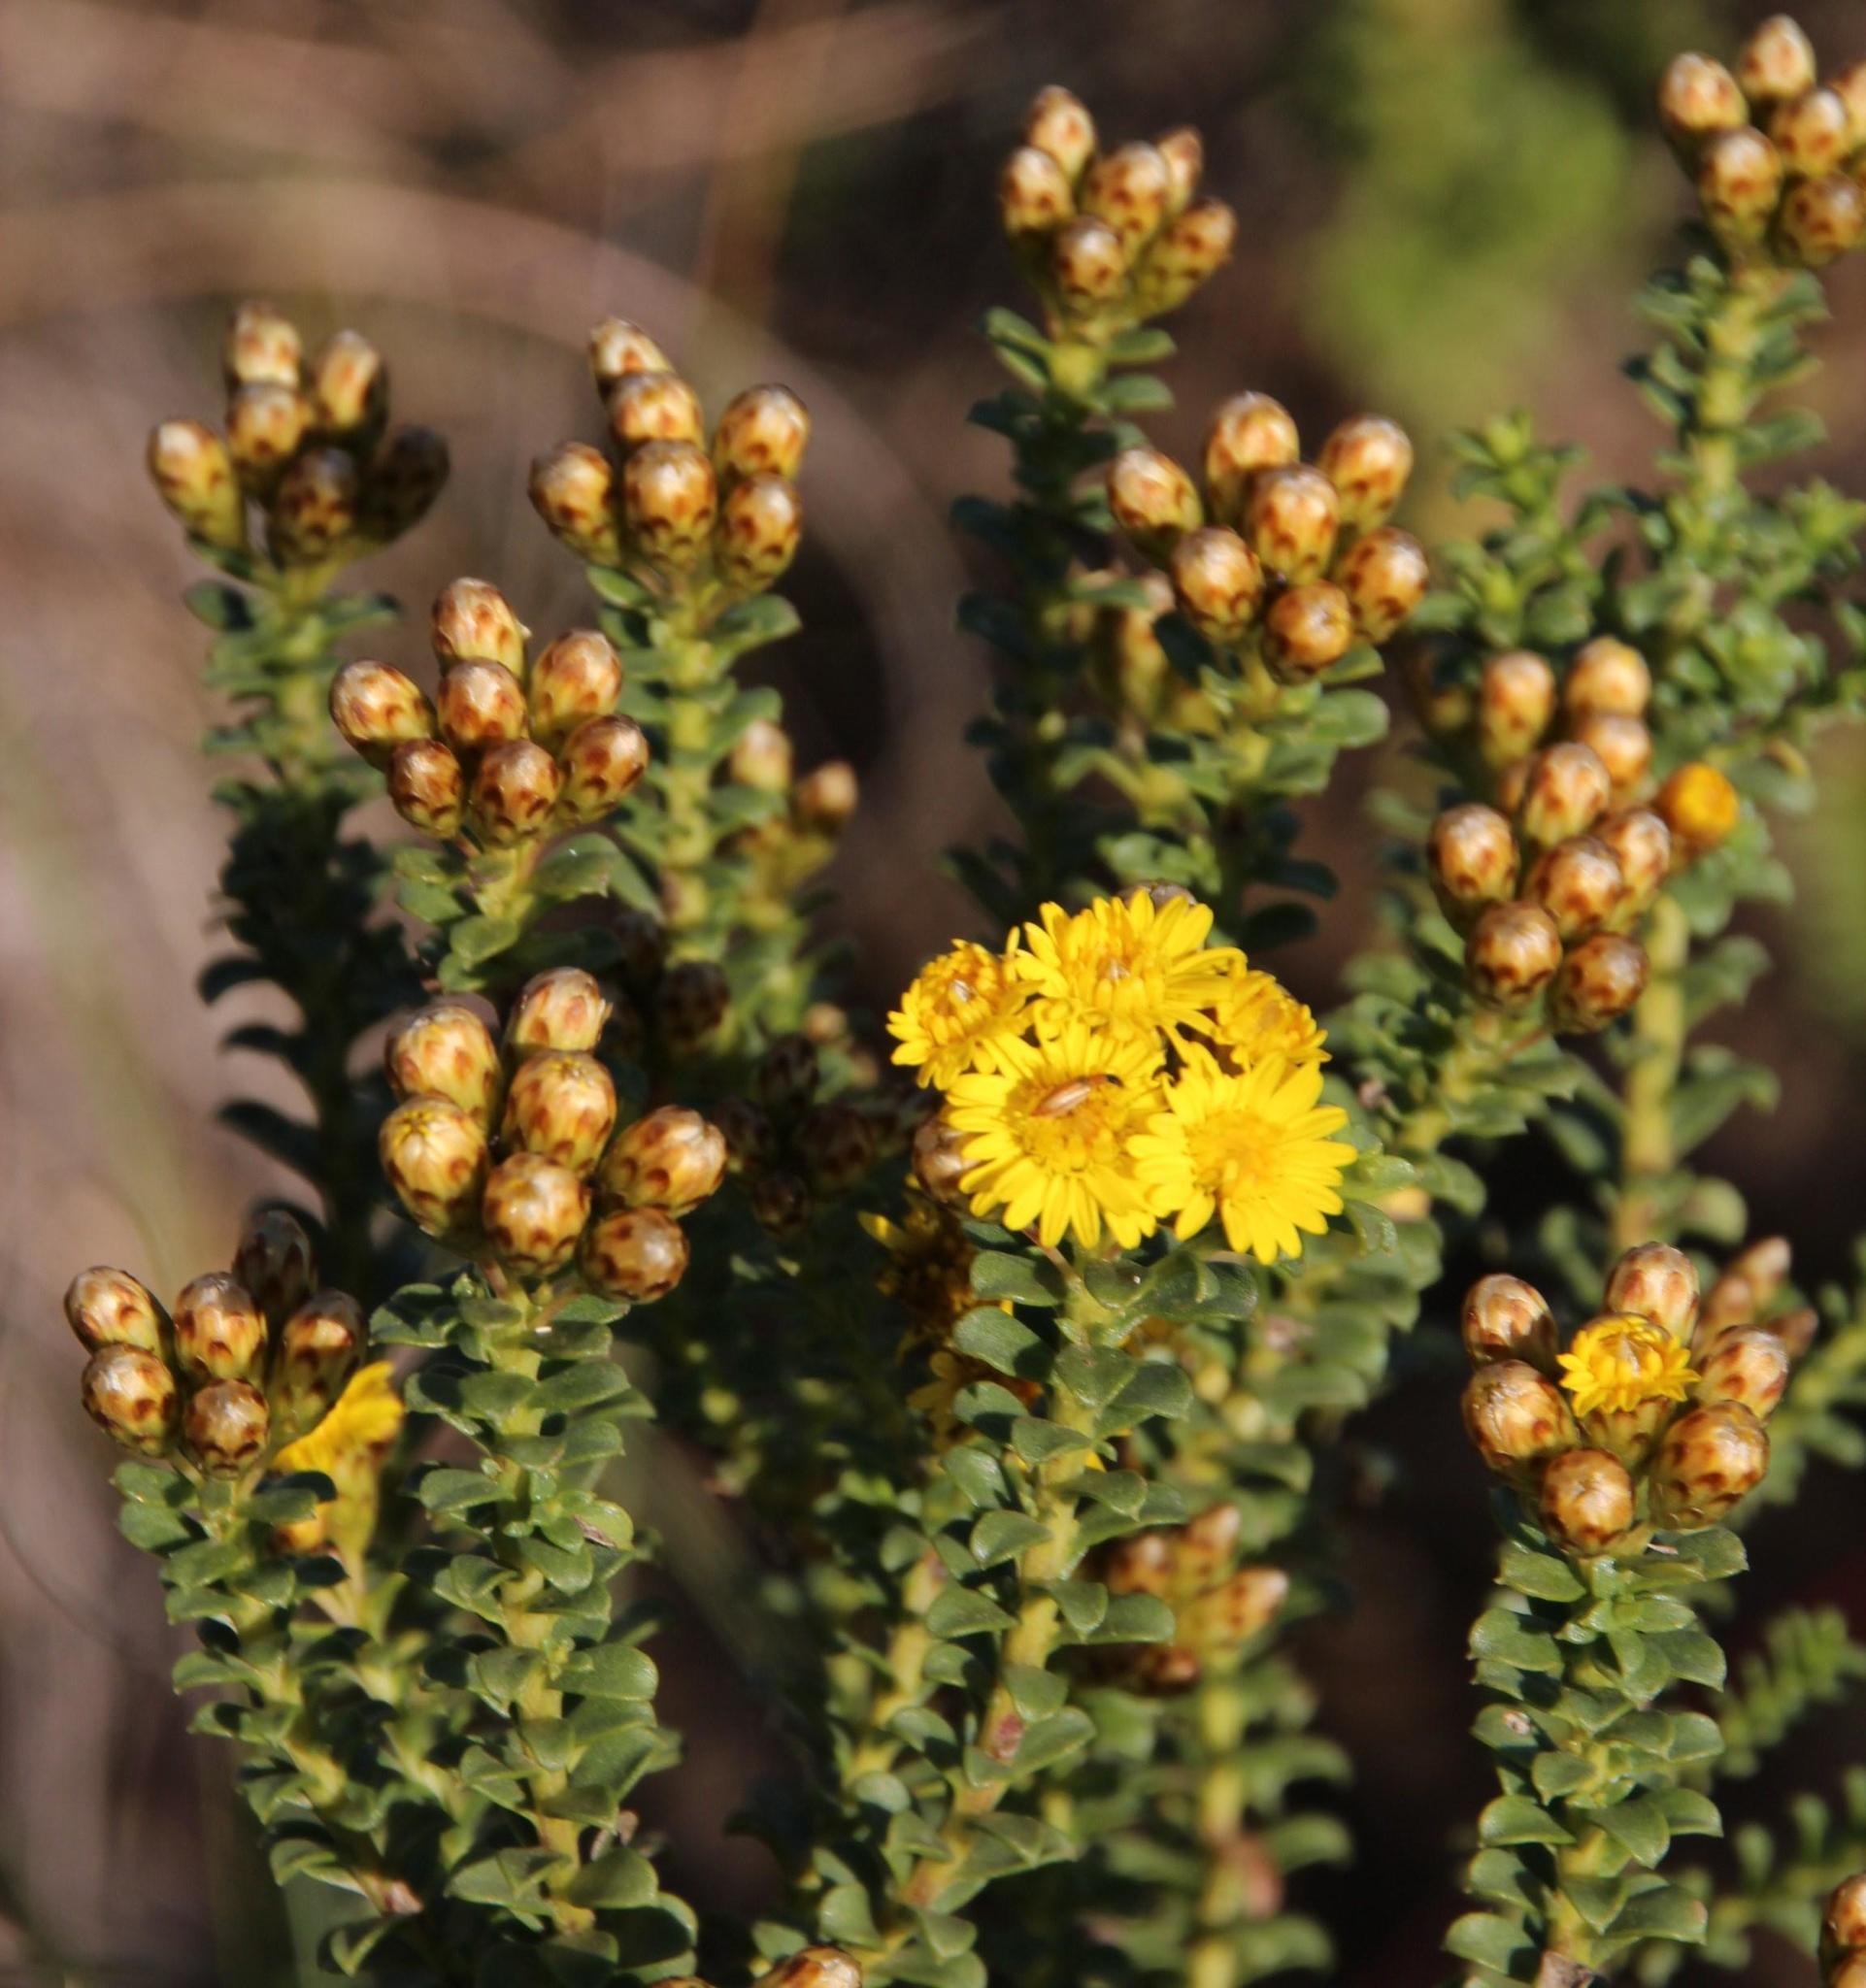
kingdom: Plantae
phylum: Tracheophyta
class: Magnoliopsida
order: Asterales
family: Asteraceae
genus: Oedera
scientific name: Oedera squarrosa
